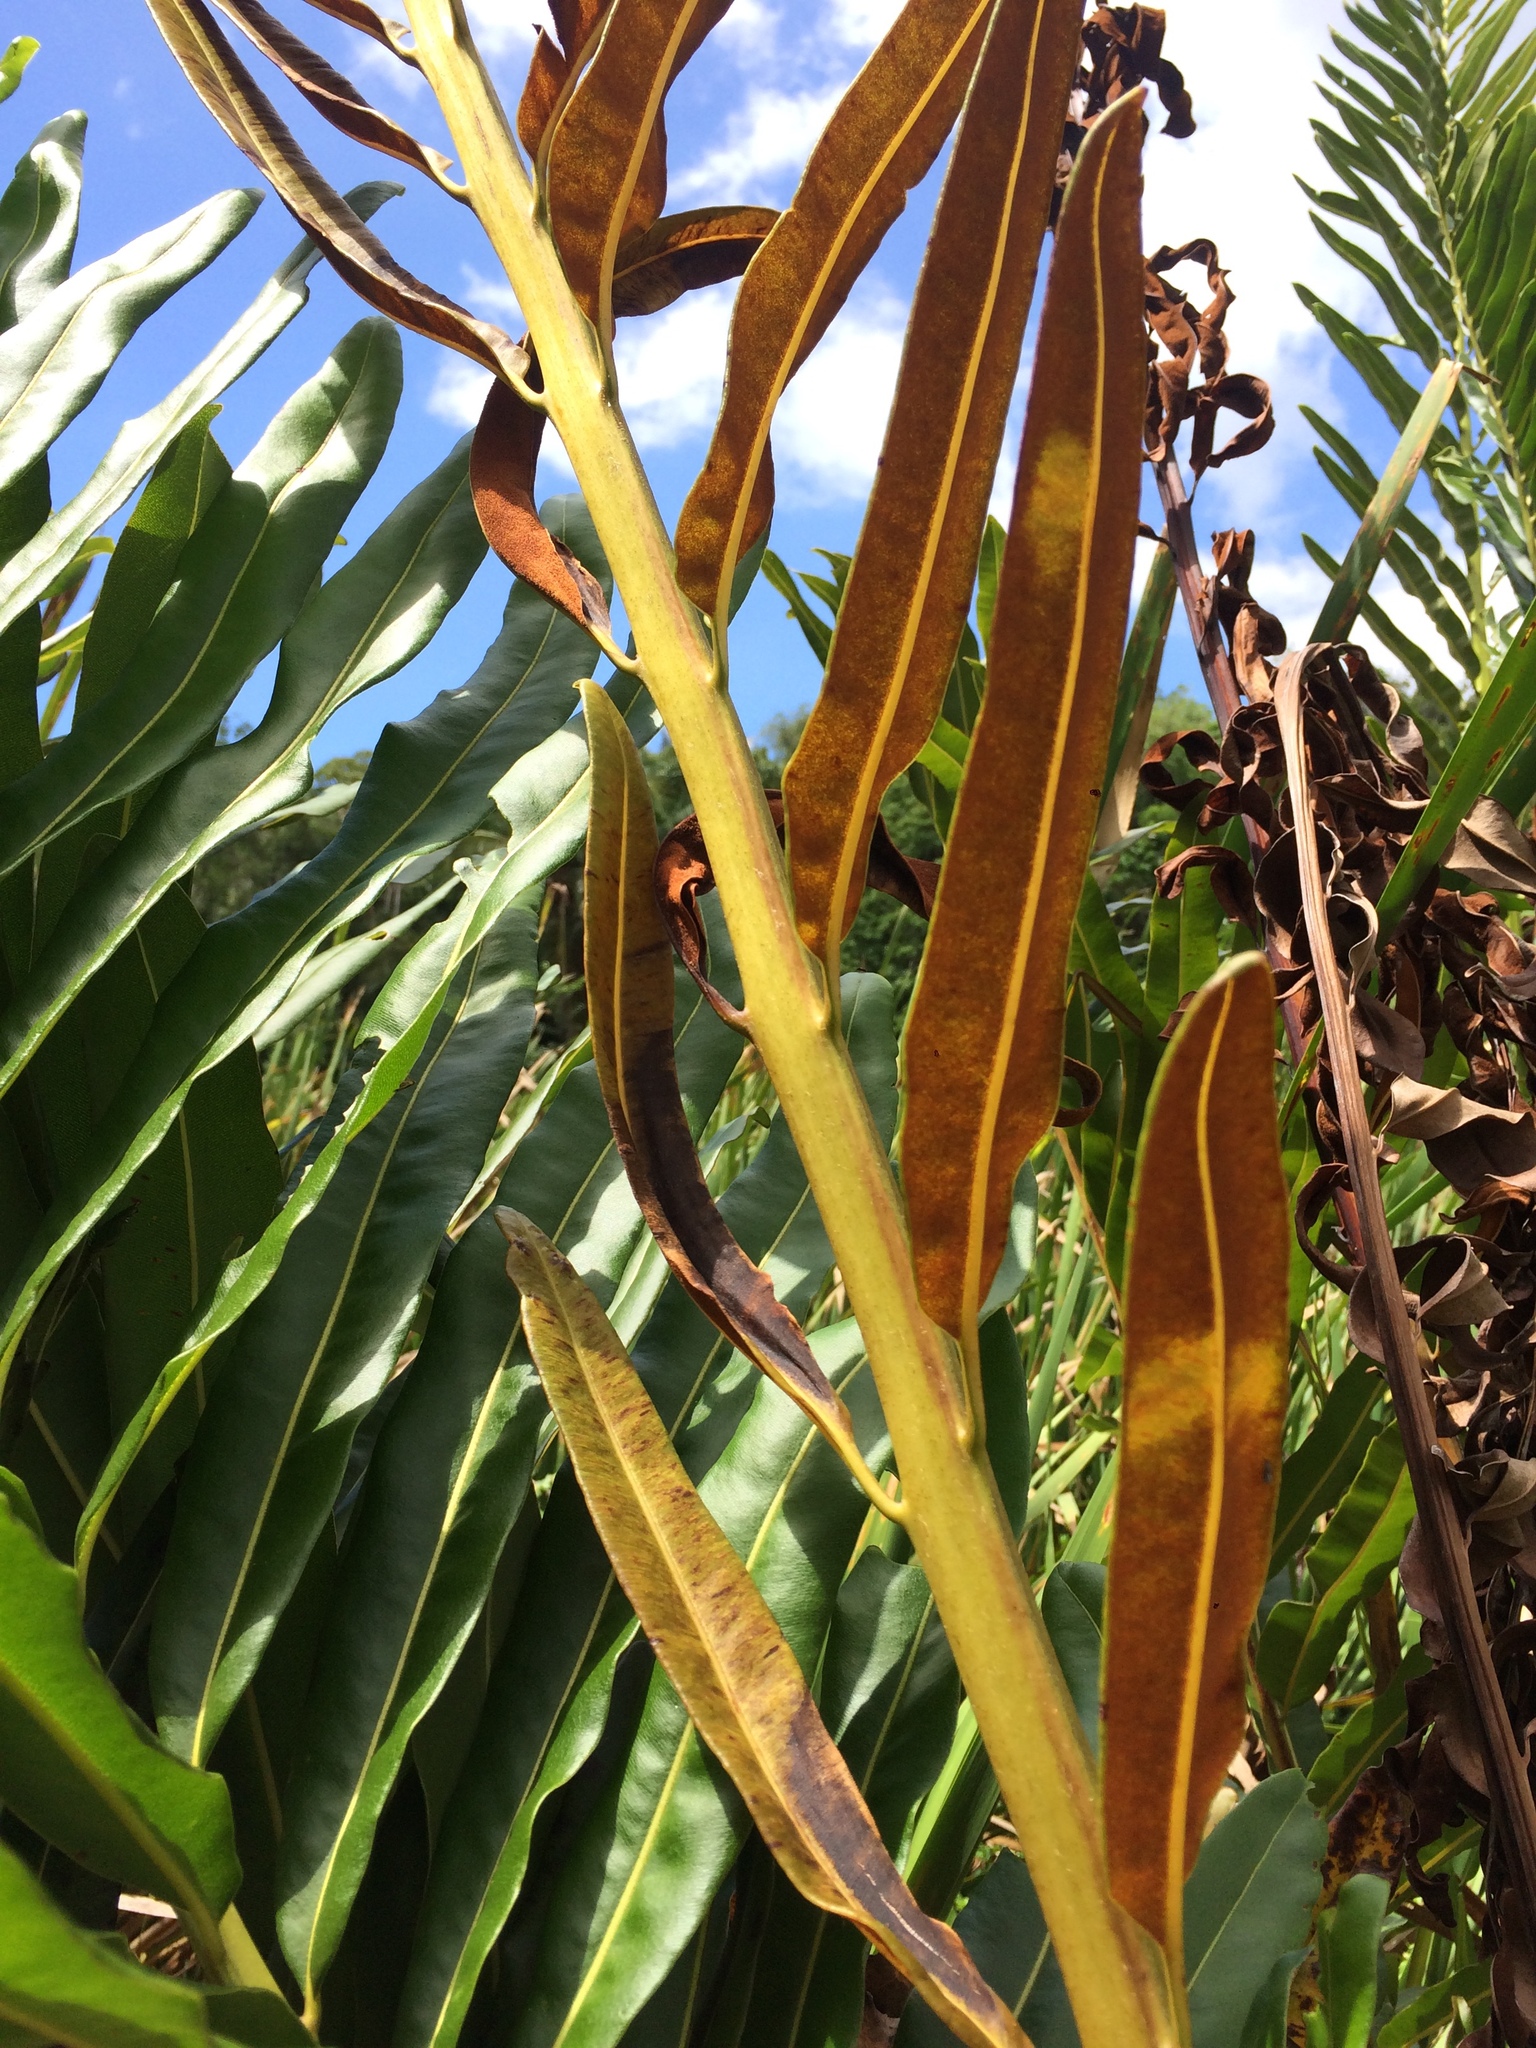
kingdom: Plantae
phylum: Tracheophyta
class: Polypodiopsida
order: Polypodiales
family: Pteridaceae
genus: Acrostichum
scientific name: Acrostichum danaeifolium
